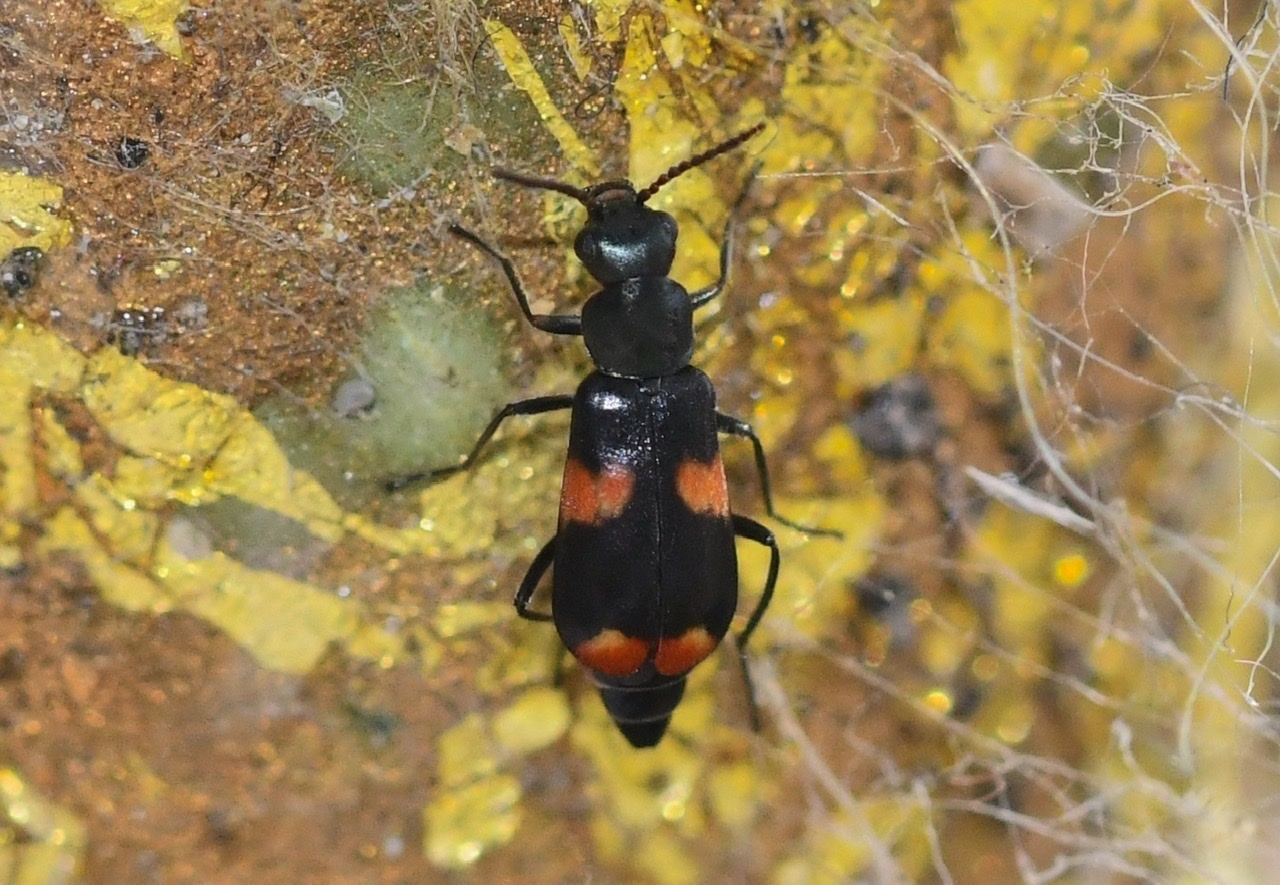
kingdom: Animalia
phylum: Arthropoda
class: Insecta
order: Coleoptera
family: Melyridae
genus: Anthocomus
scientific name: Anthocomus fasciatus
